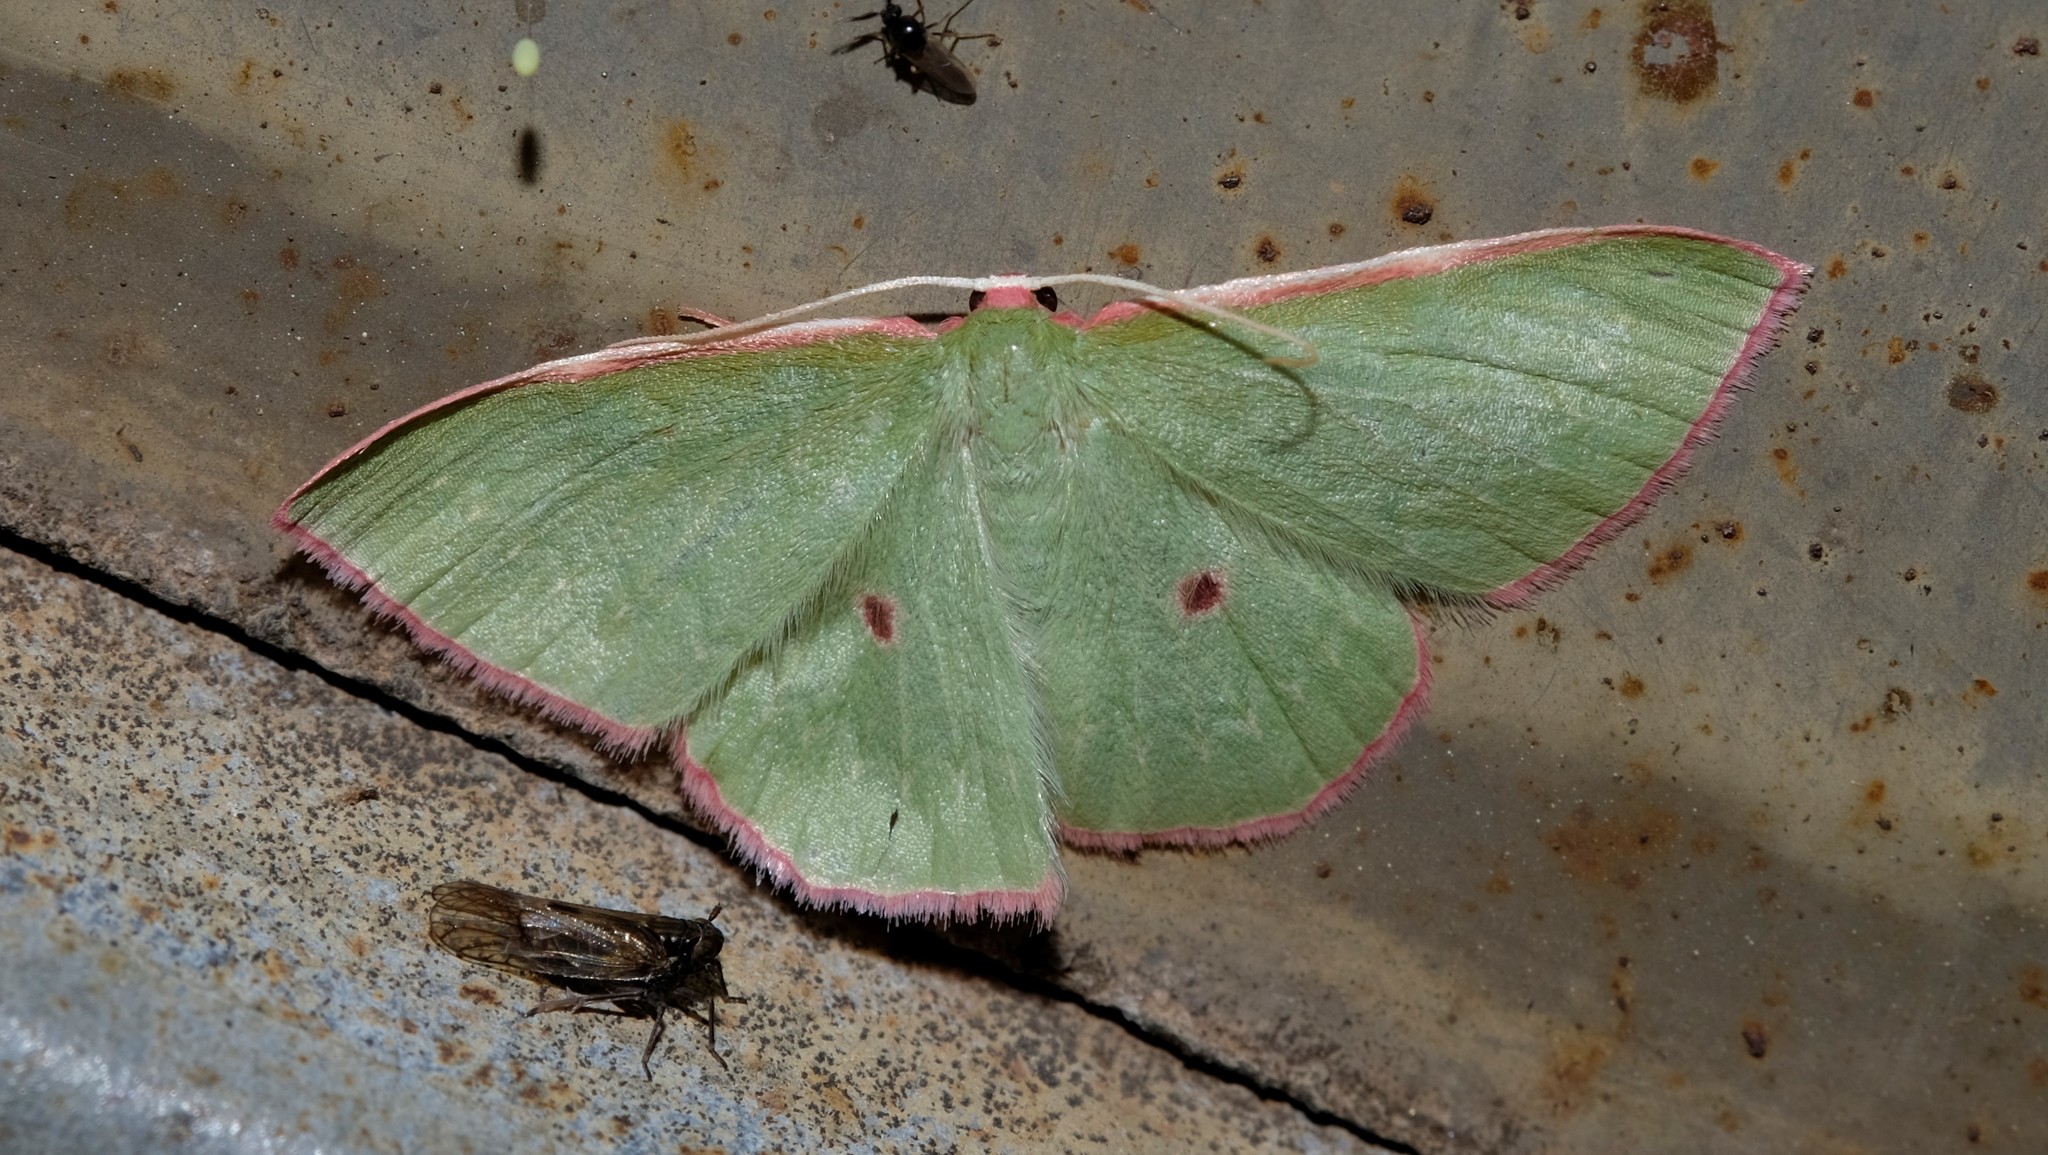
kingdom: Animalia
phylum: Arthropoda
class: Insecta
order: Lepidoptera
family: Geometridae
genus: Chlorocoma
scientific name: Chlorocoma cadmaria
